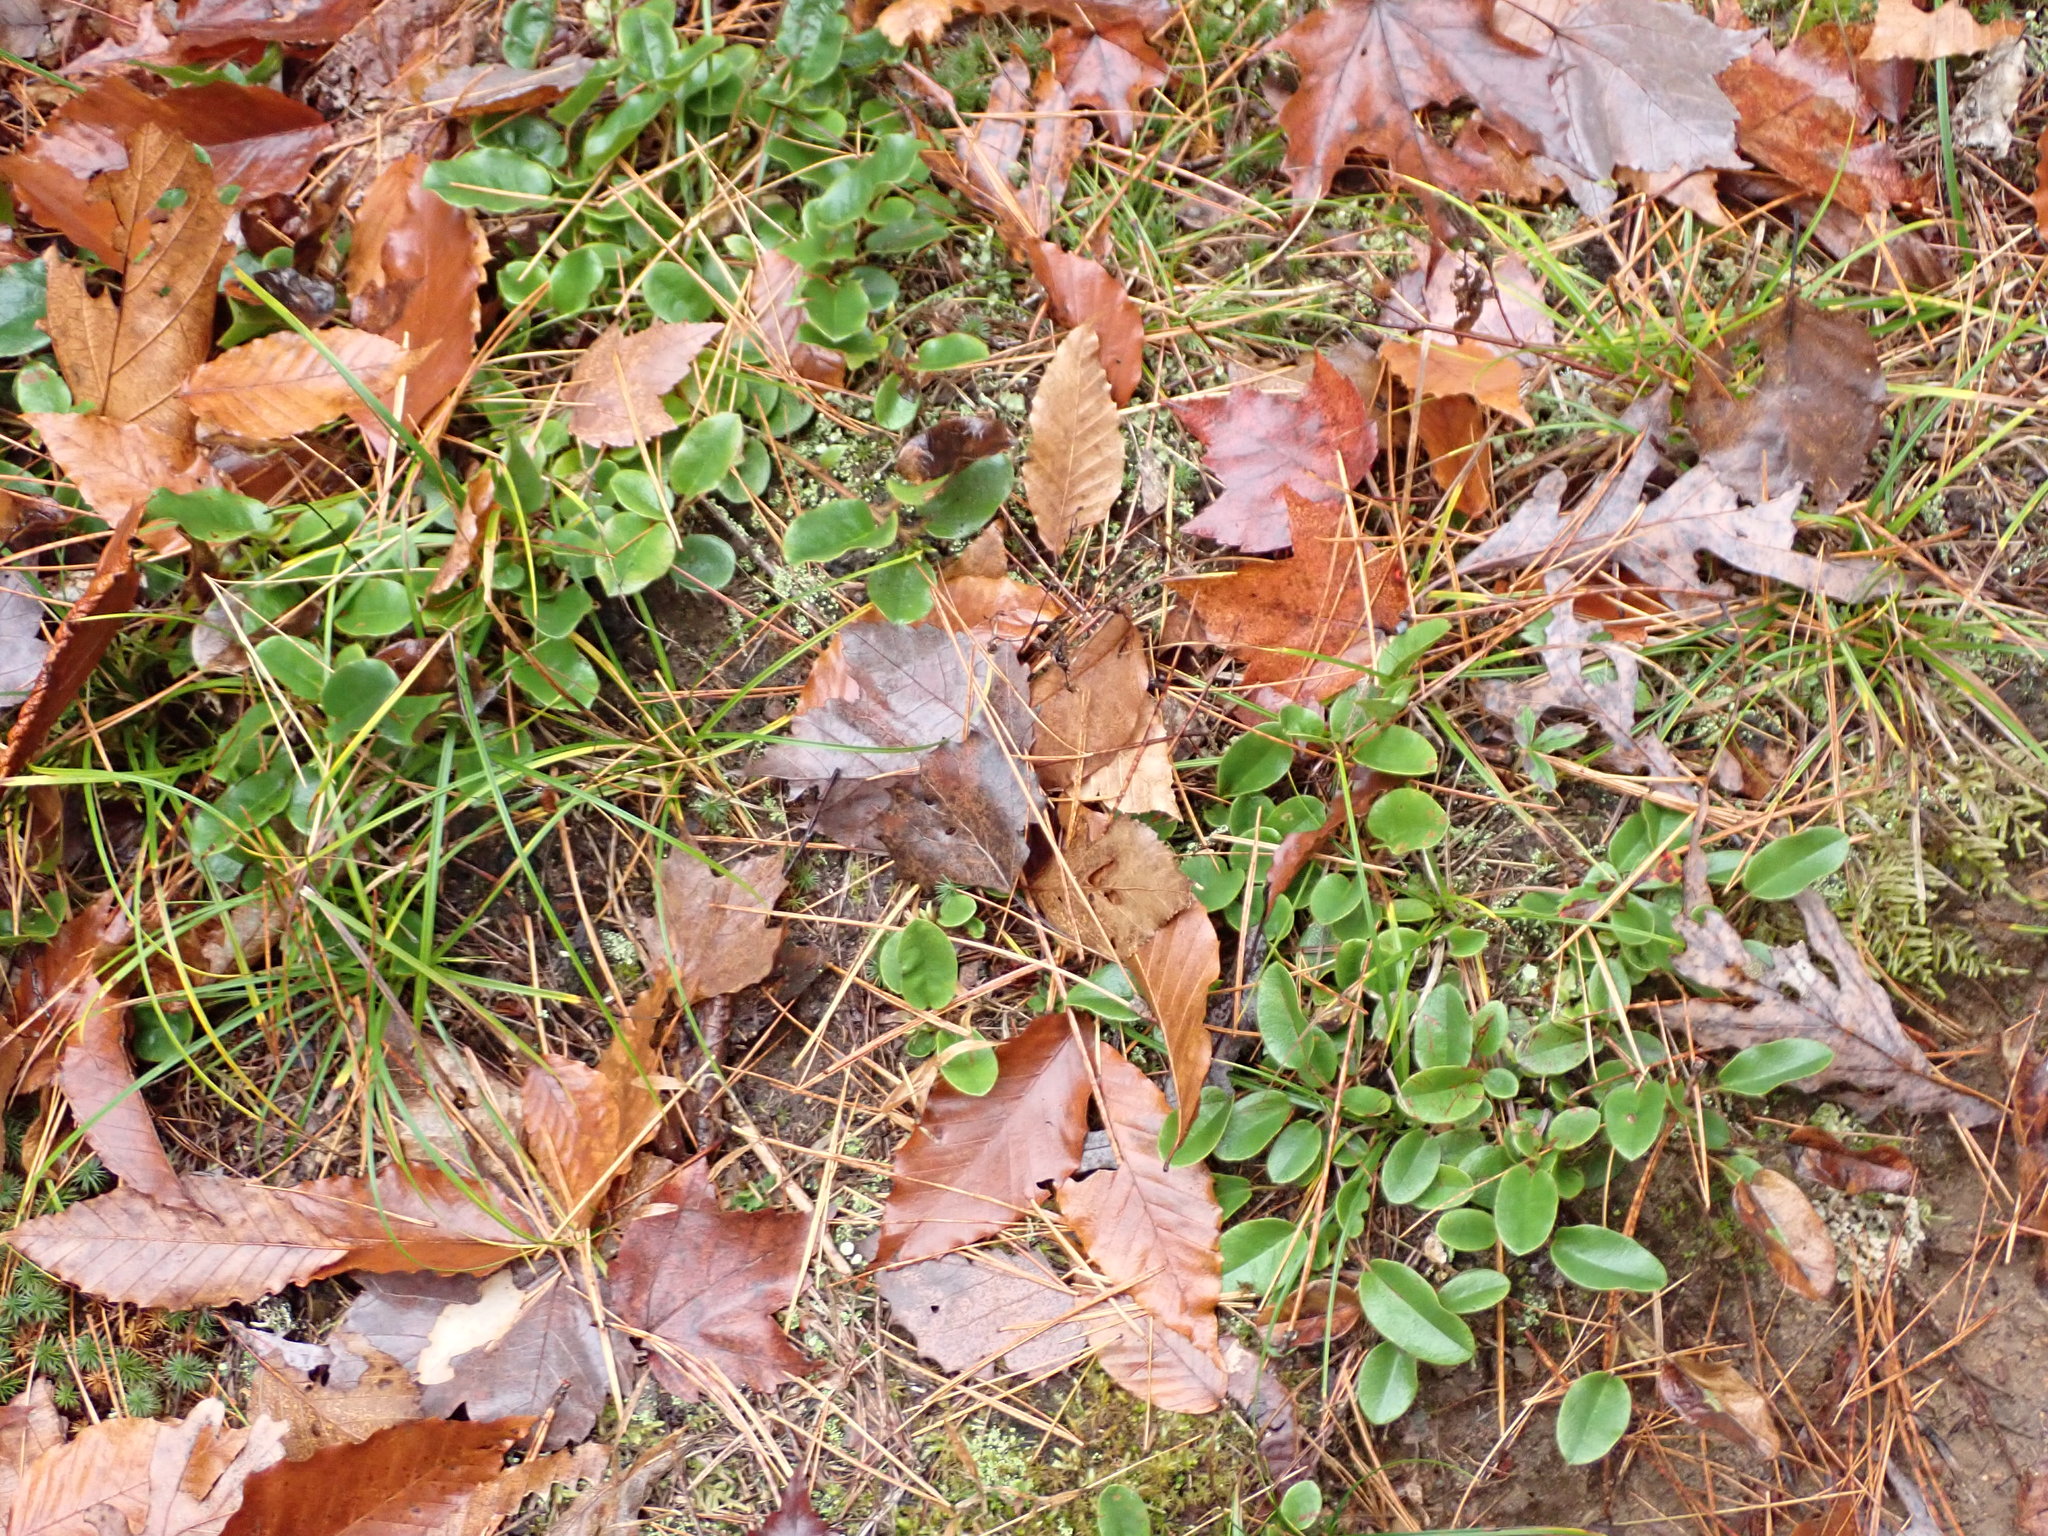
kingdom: Plantae
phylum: Tracheophyta
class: Magnoliopsida
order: Ericales
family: Ericaceae
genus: Epigaea
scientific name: Epigaea repens
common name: Gravelroot
